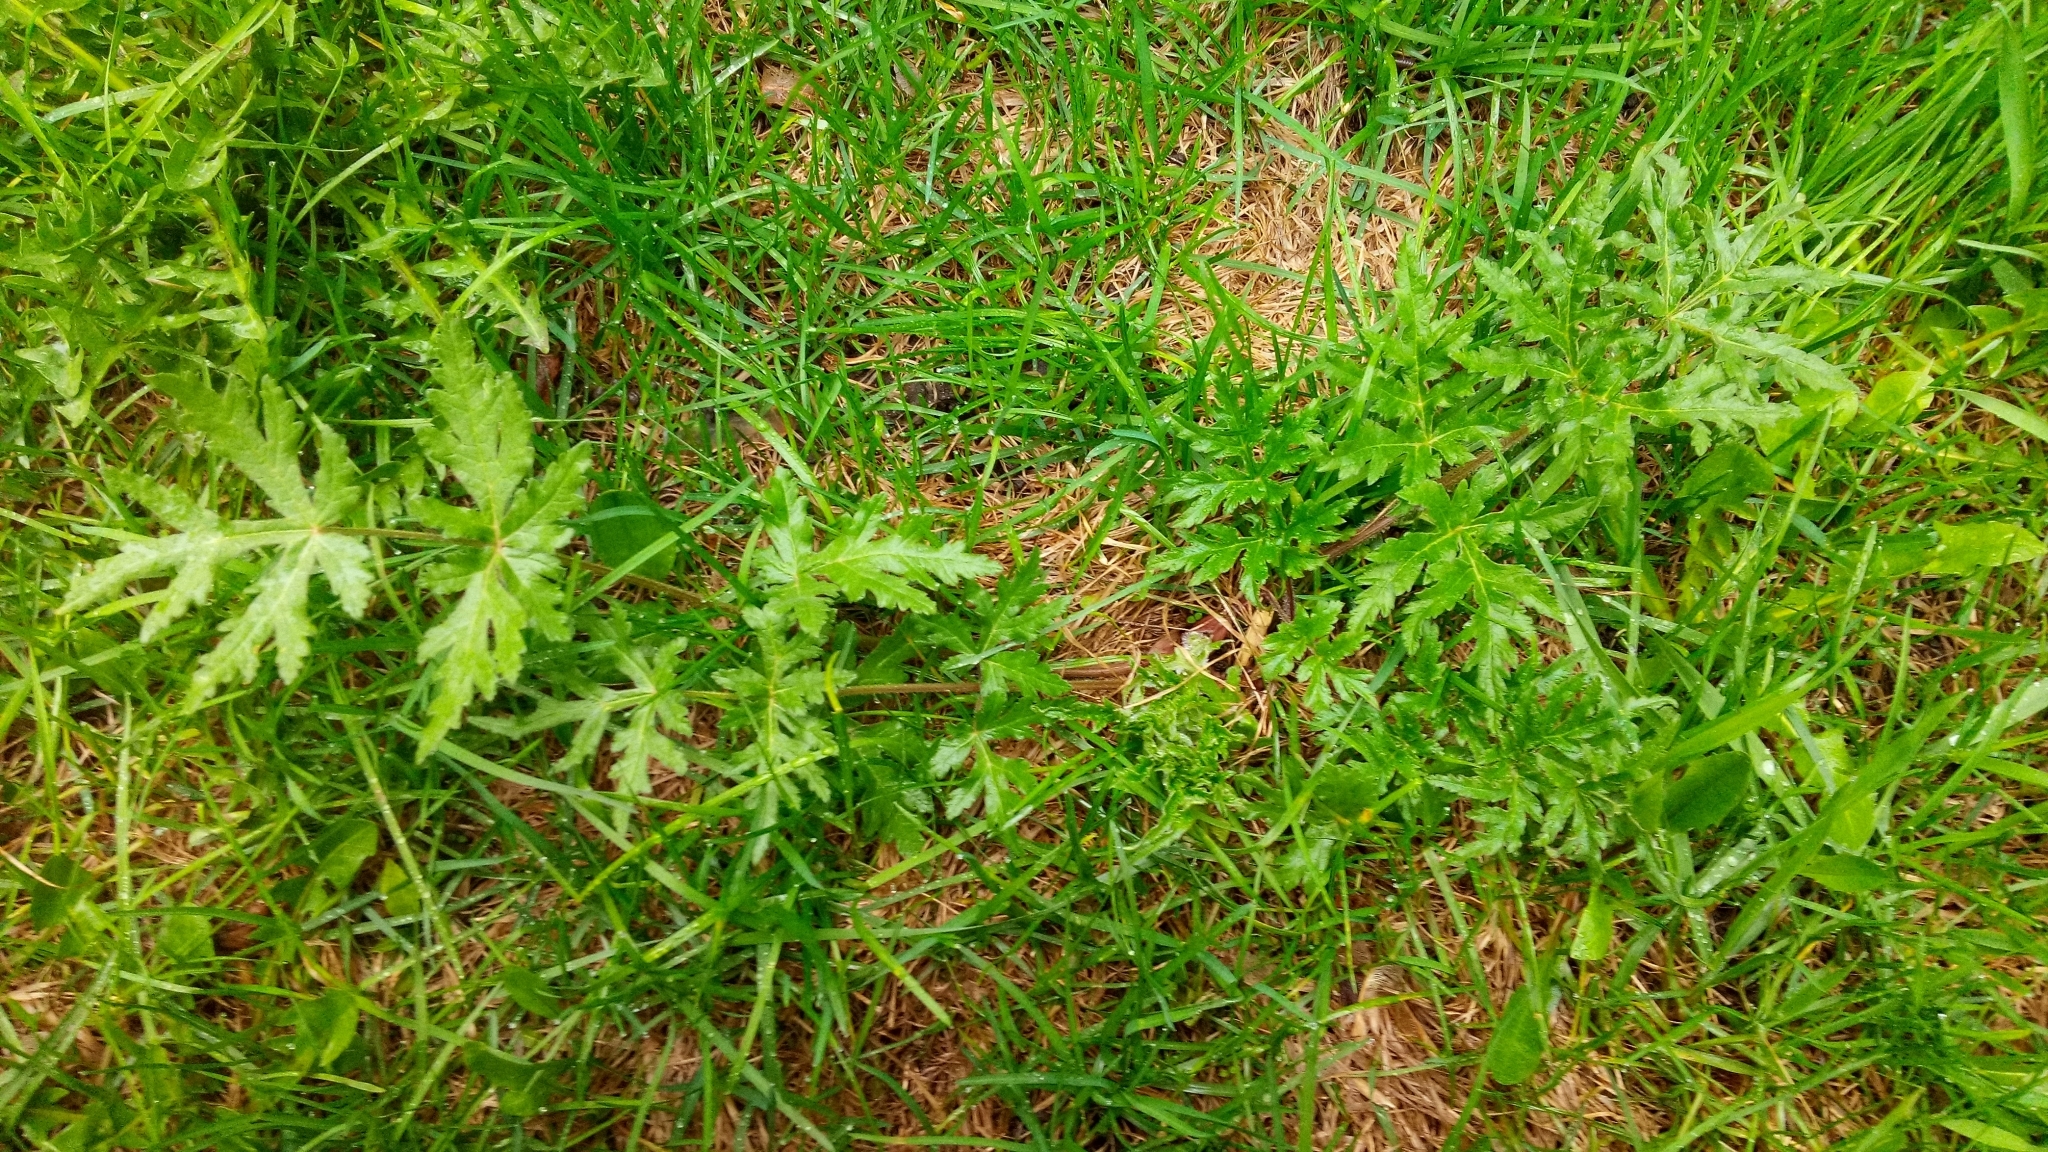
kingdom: Plantae
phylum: Tracheophyta
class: Magnoliopsida
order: Apiales
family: Apiaceae
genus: Heracleum
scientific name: Heracleum sphondylium
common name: Hogweed
